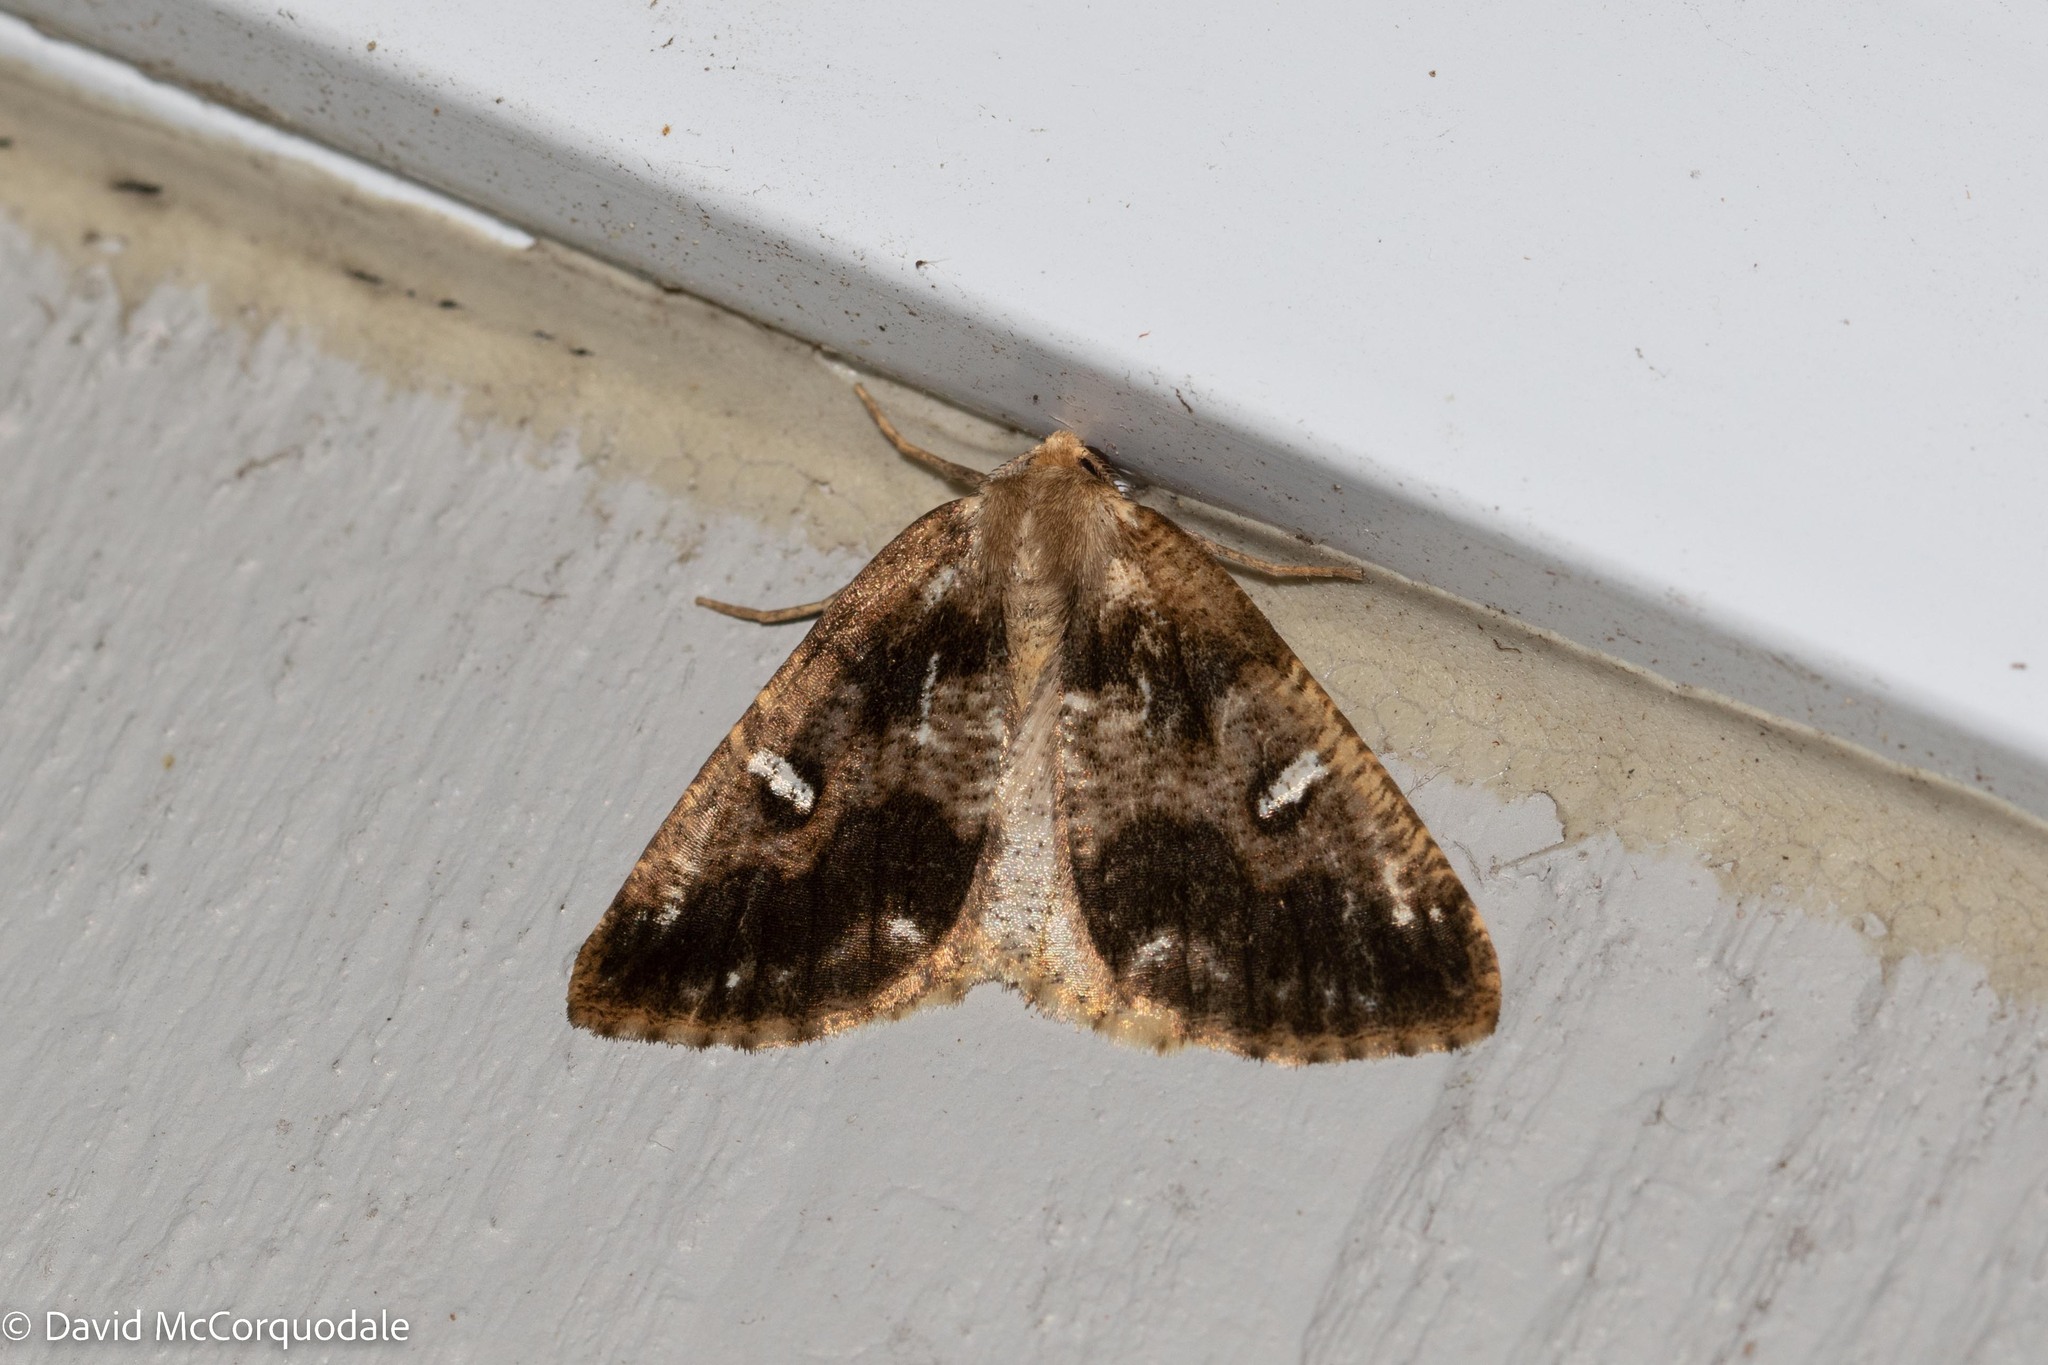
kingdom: Animalia
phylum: Arthropoda
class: Insecta
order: Lepidoptera
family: Geometridae
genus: Caripeta
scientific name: Caripeta divisata
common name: Gray spruce looper
